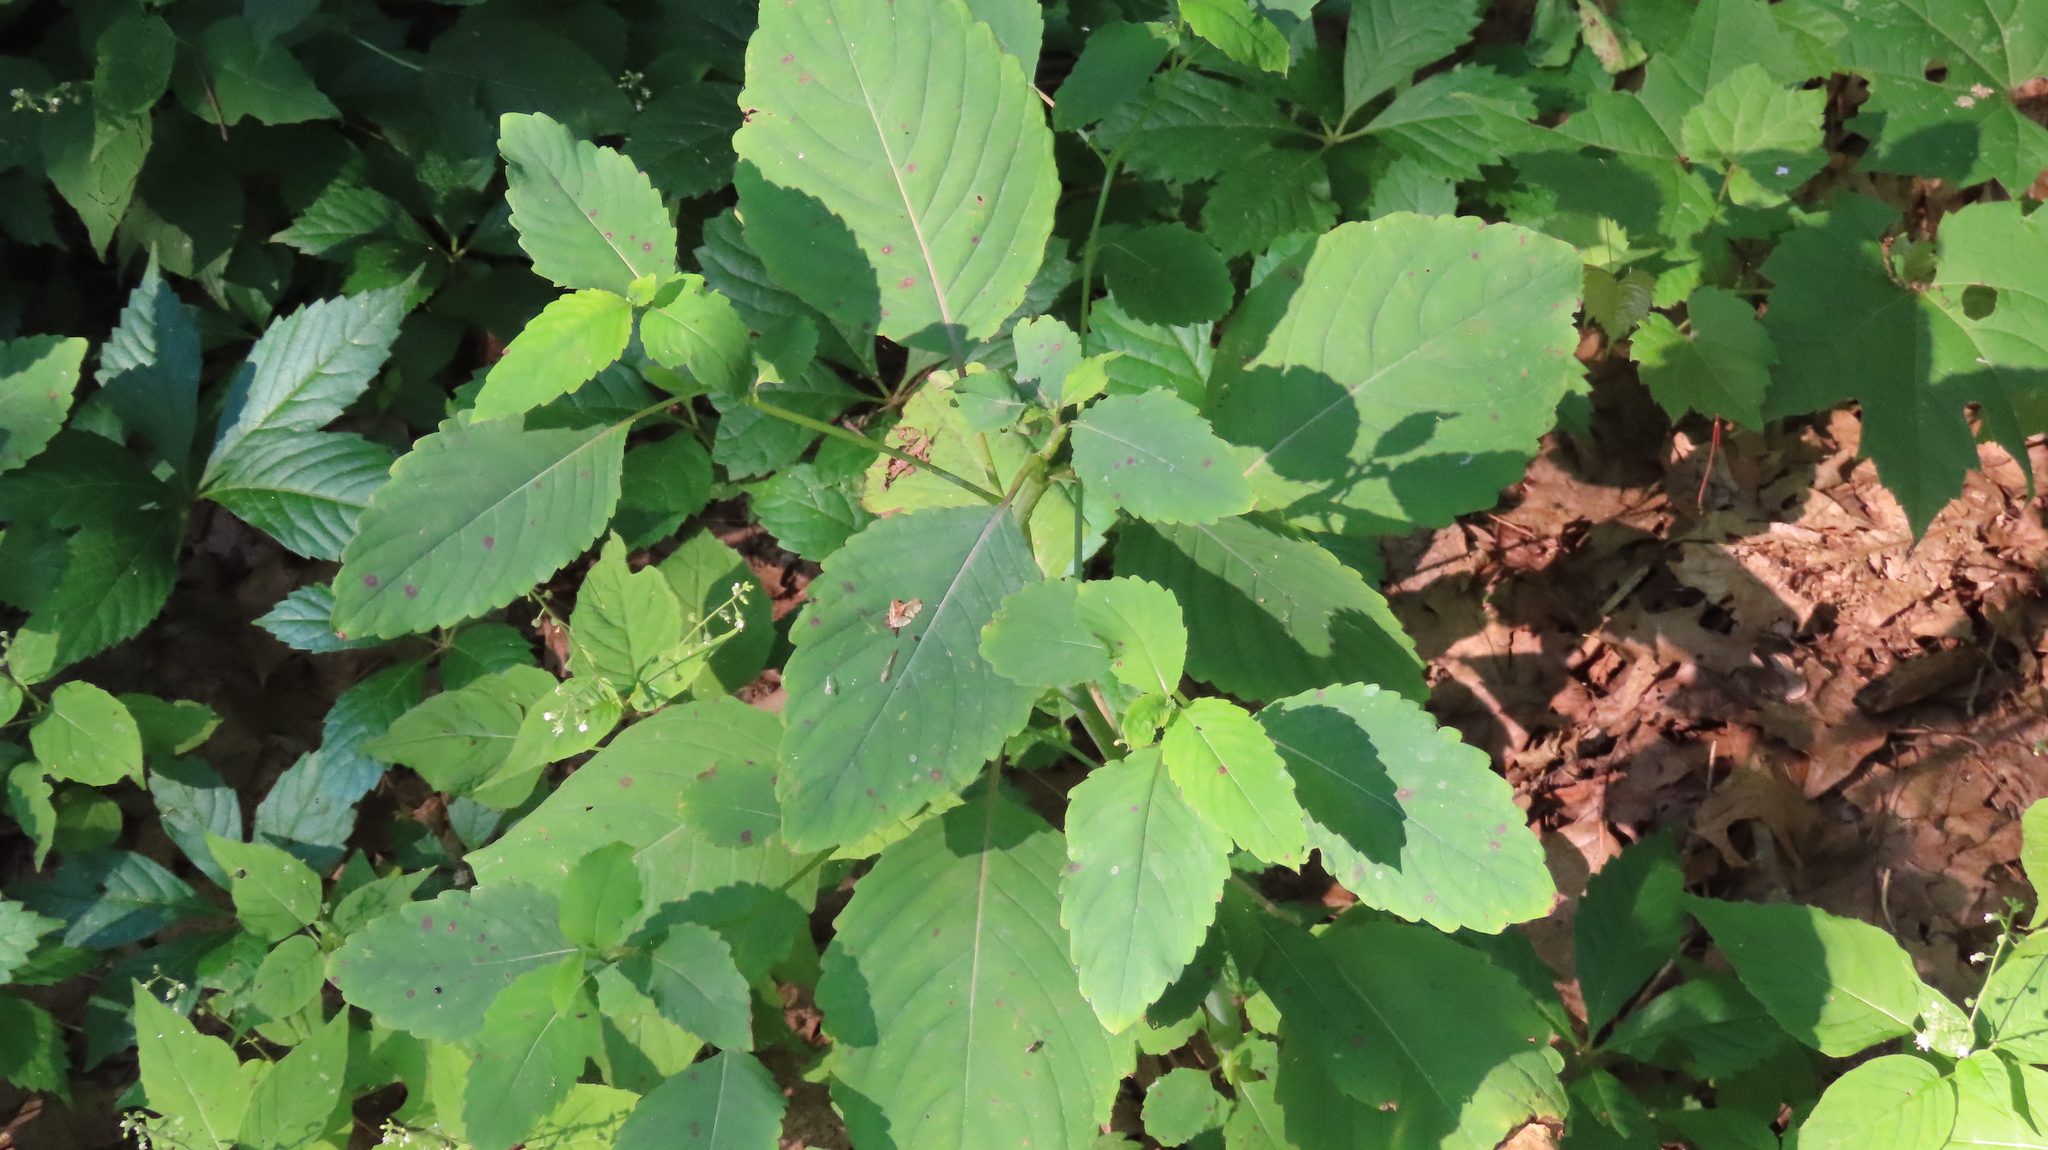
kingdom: Plantae
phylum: Tracheophyta
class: Magnoliopsida
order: Ericales
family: Balsaminaceae
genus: Impatiens
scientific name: Impatiens pallida
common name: Pale snapweed
